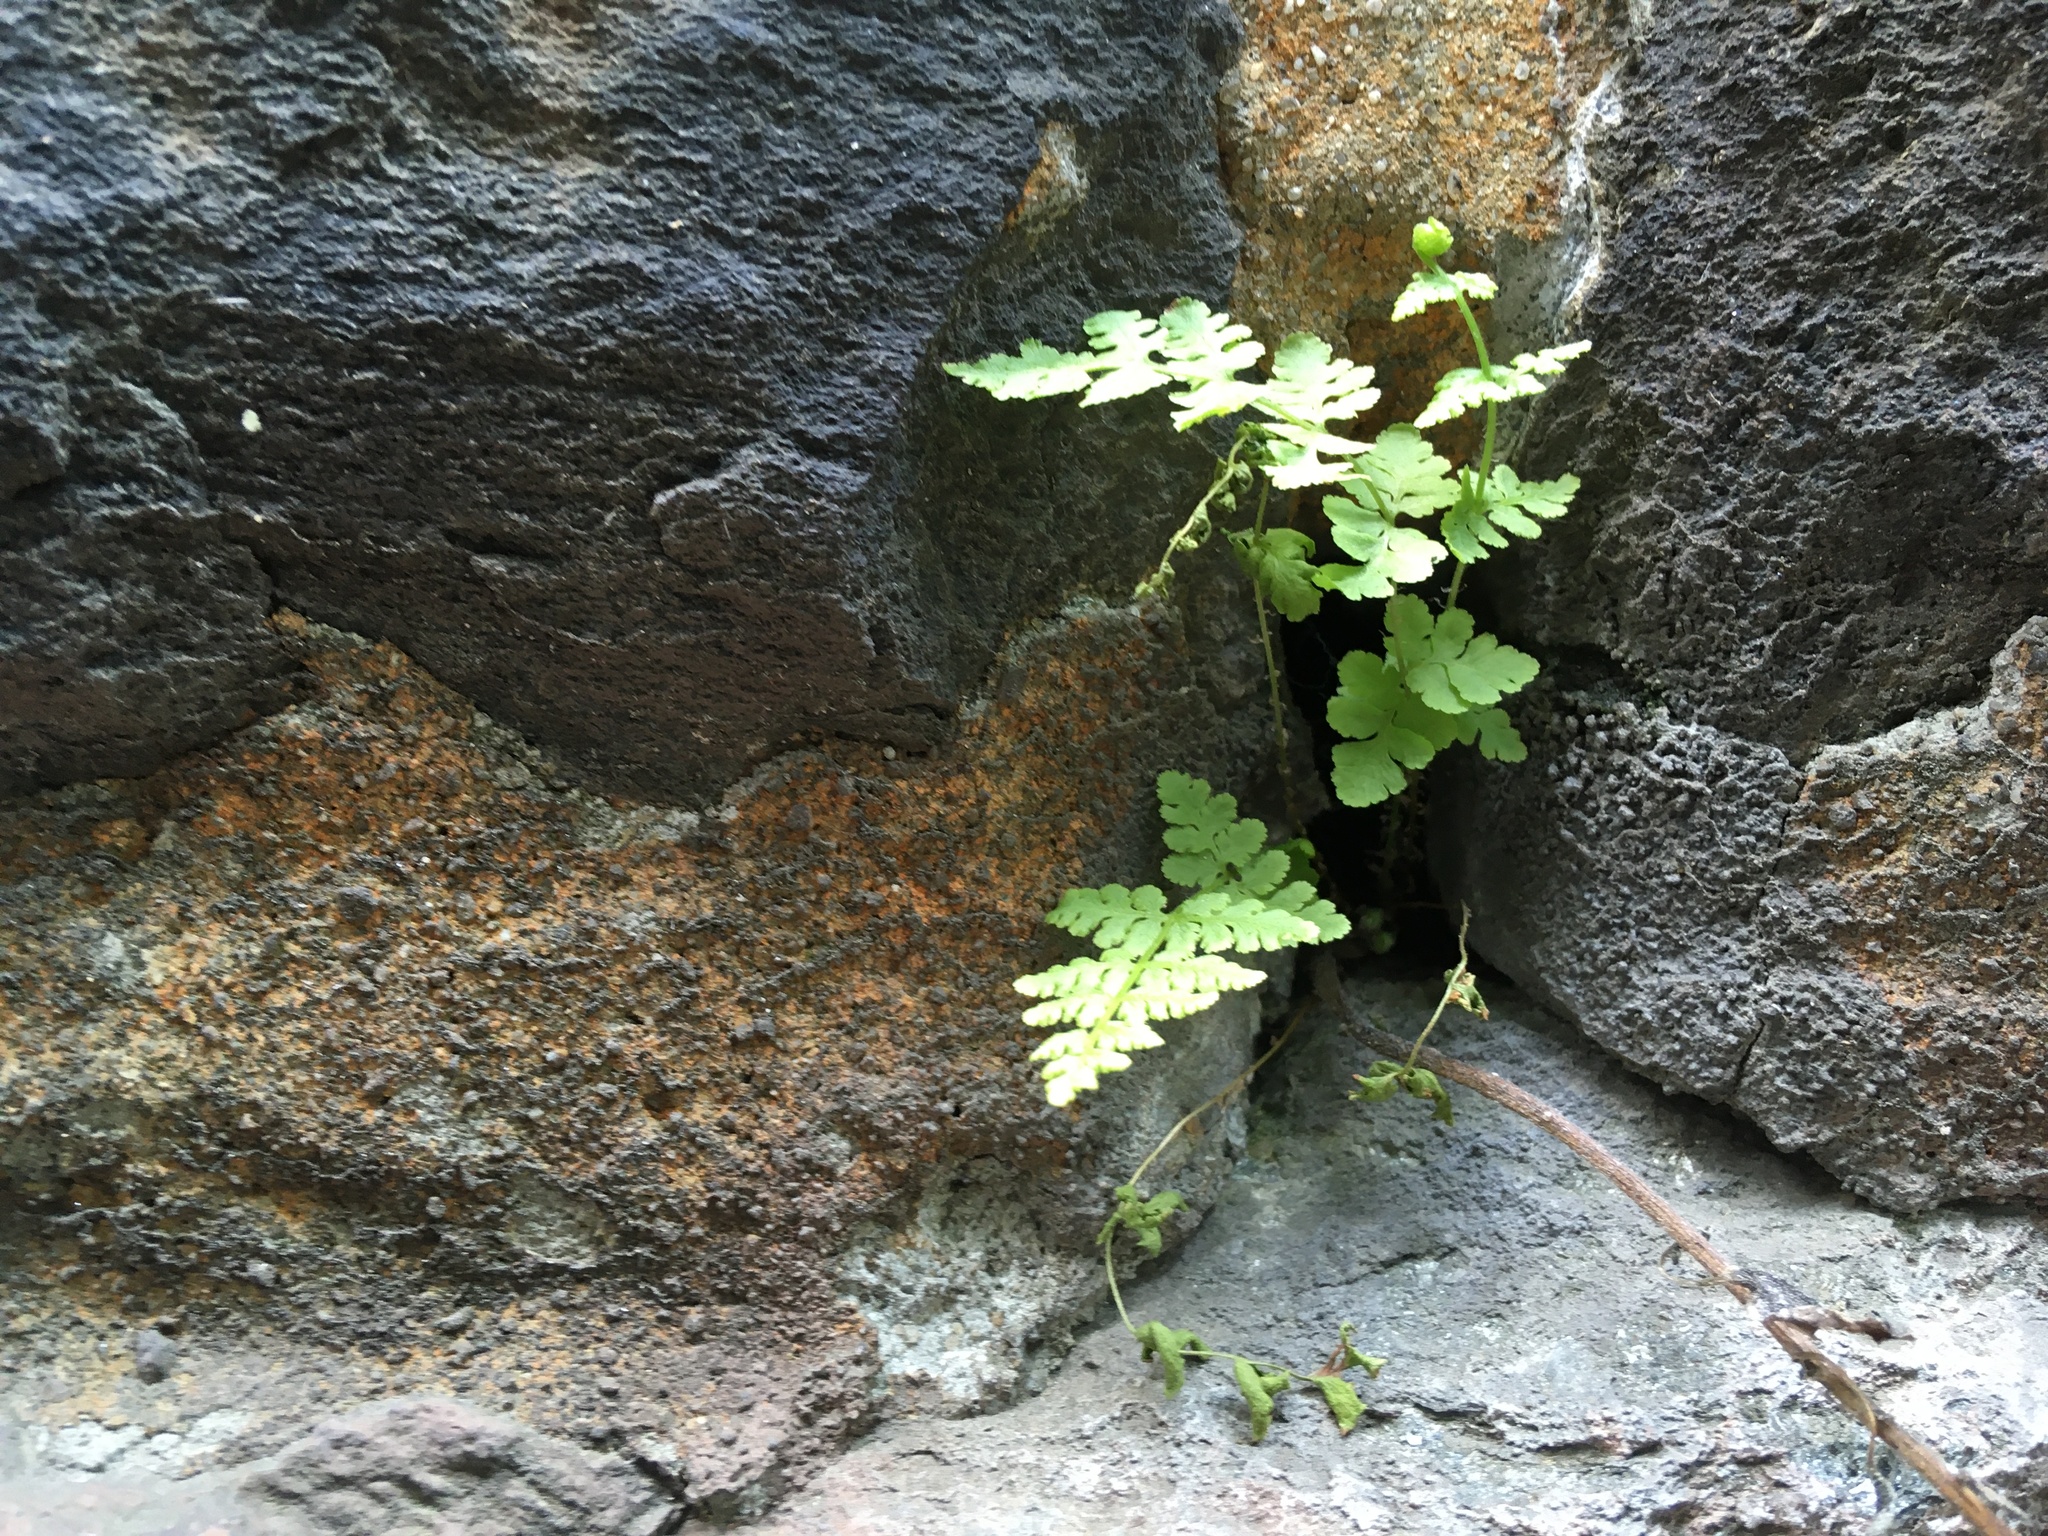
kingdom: Plantae
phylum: Tracheophyta
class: Polypodiopsida
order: Polypodiales
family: Woodsiaceae
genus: Physematium
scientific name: Physematium obtusum
